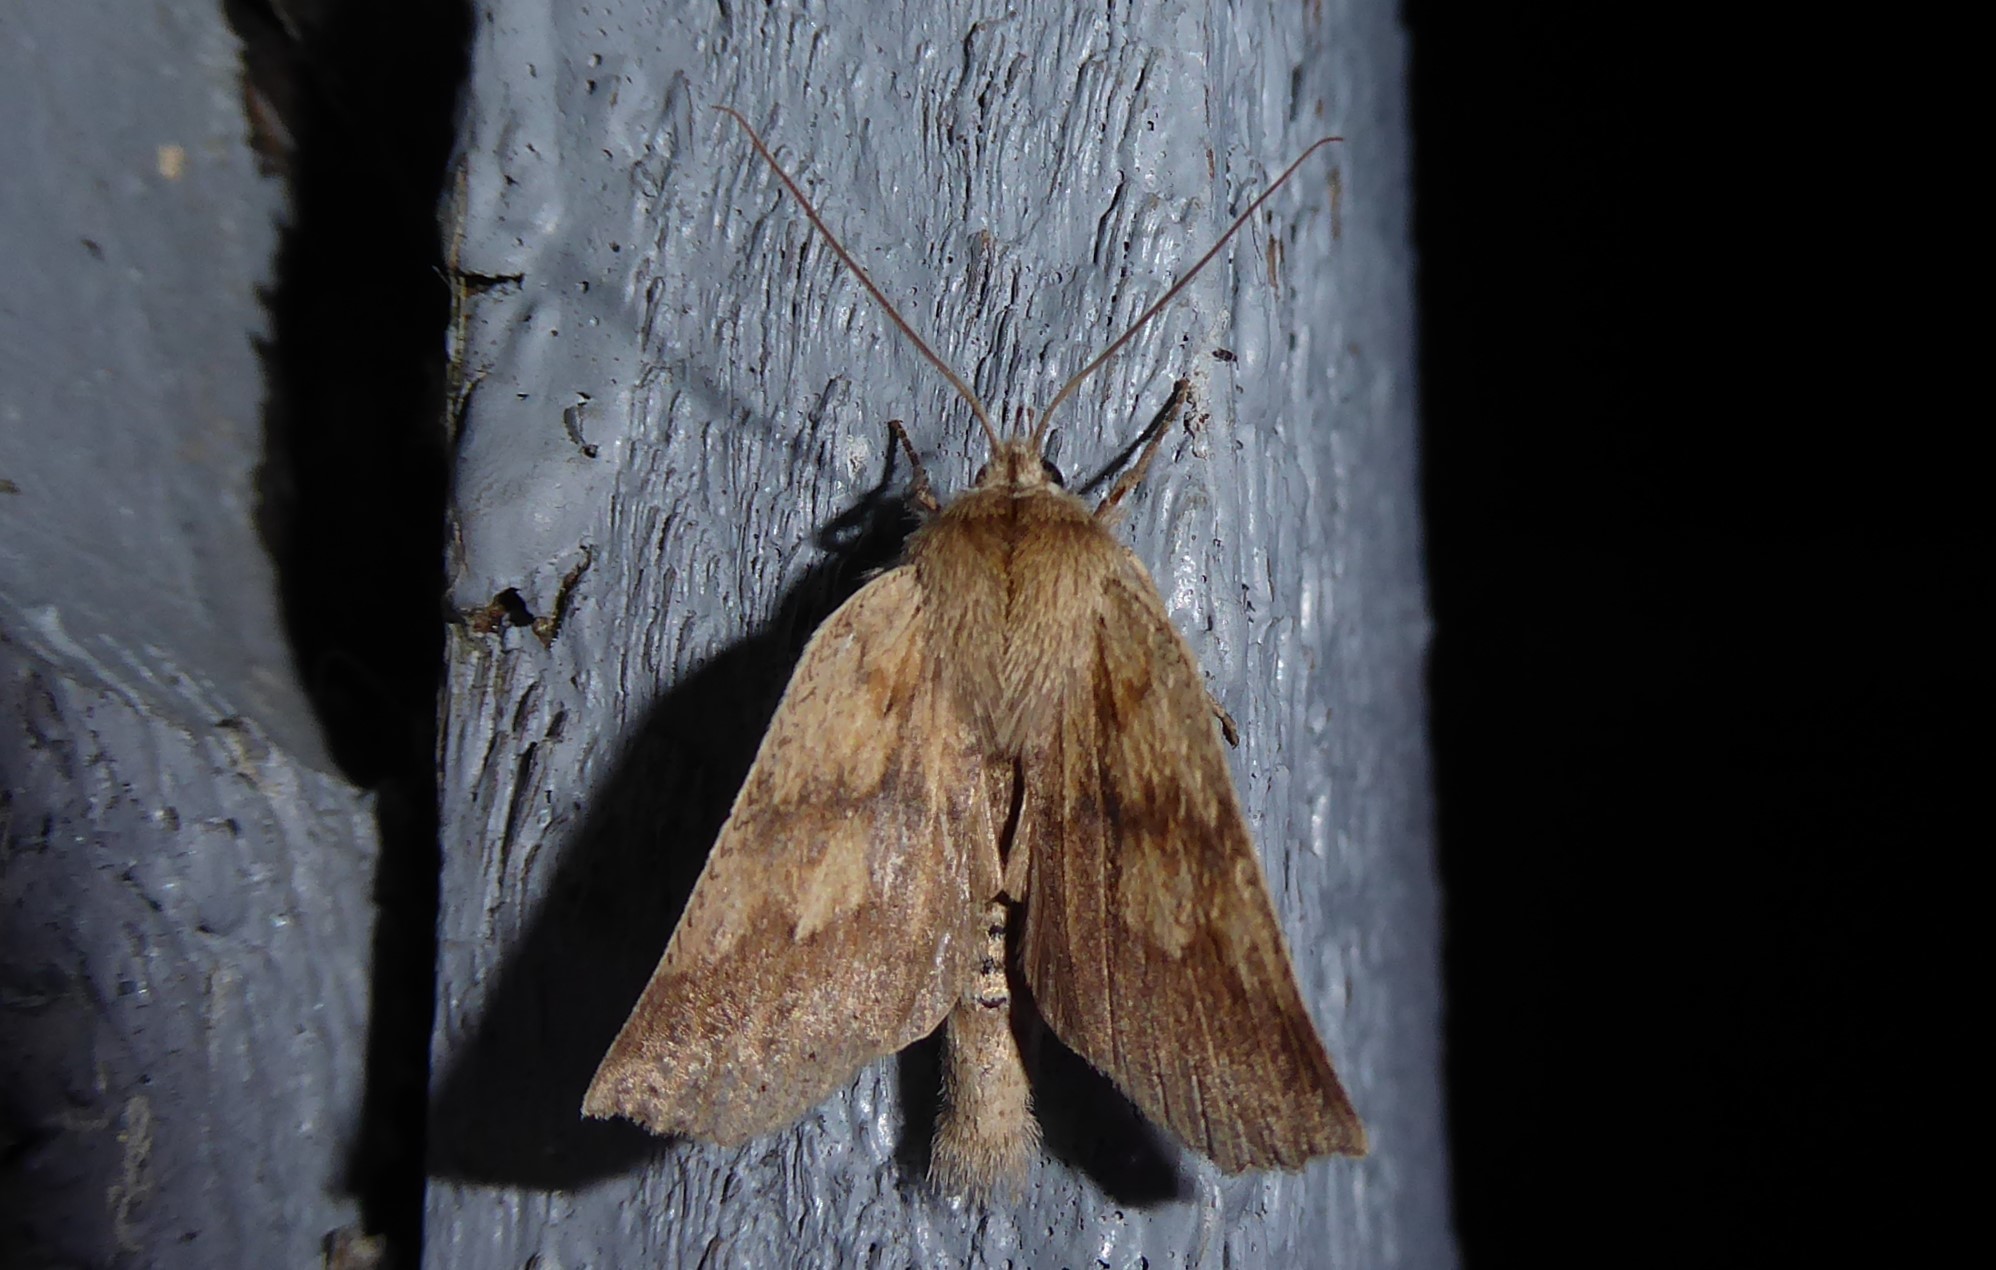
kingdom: Animalia
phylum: Arthropoda
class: Insecta
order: Lepidoptera
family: Geometridae
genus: Declana
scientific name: Declana leptomera
